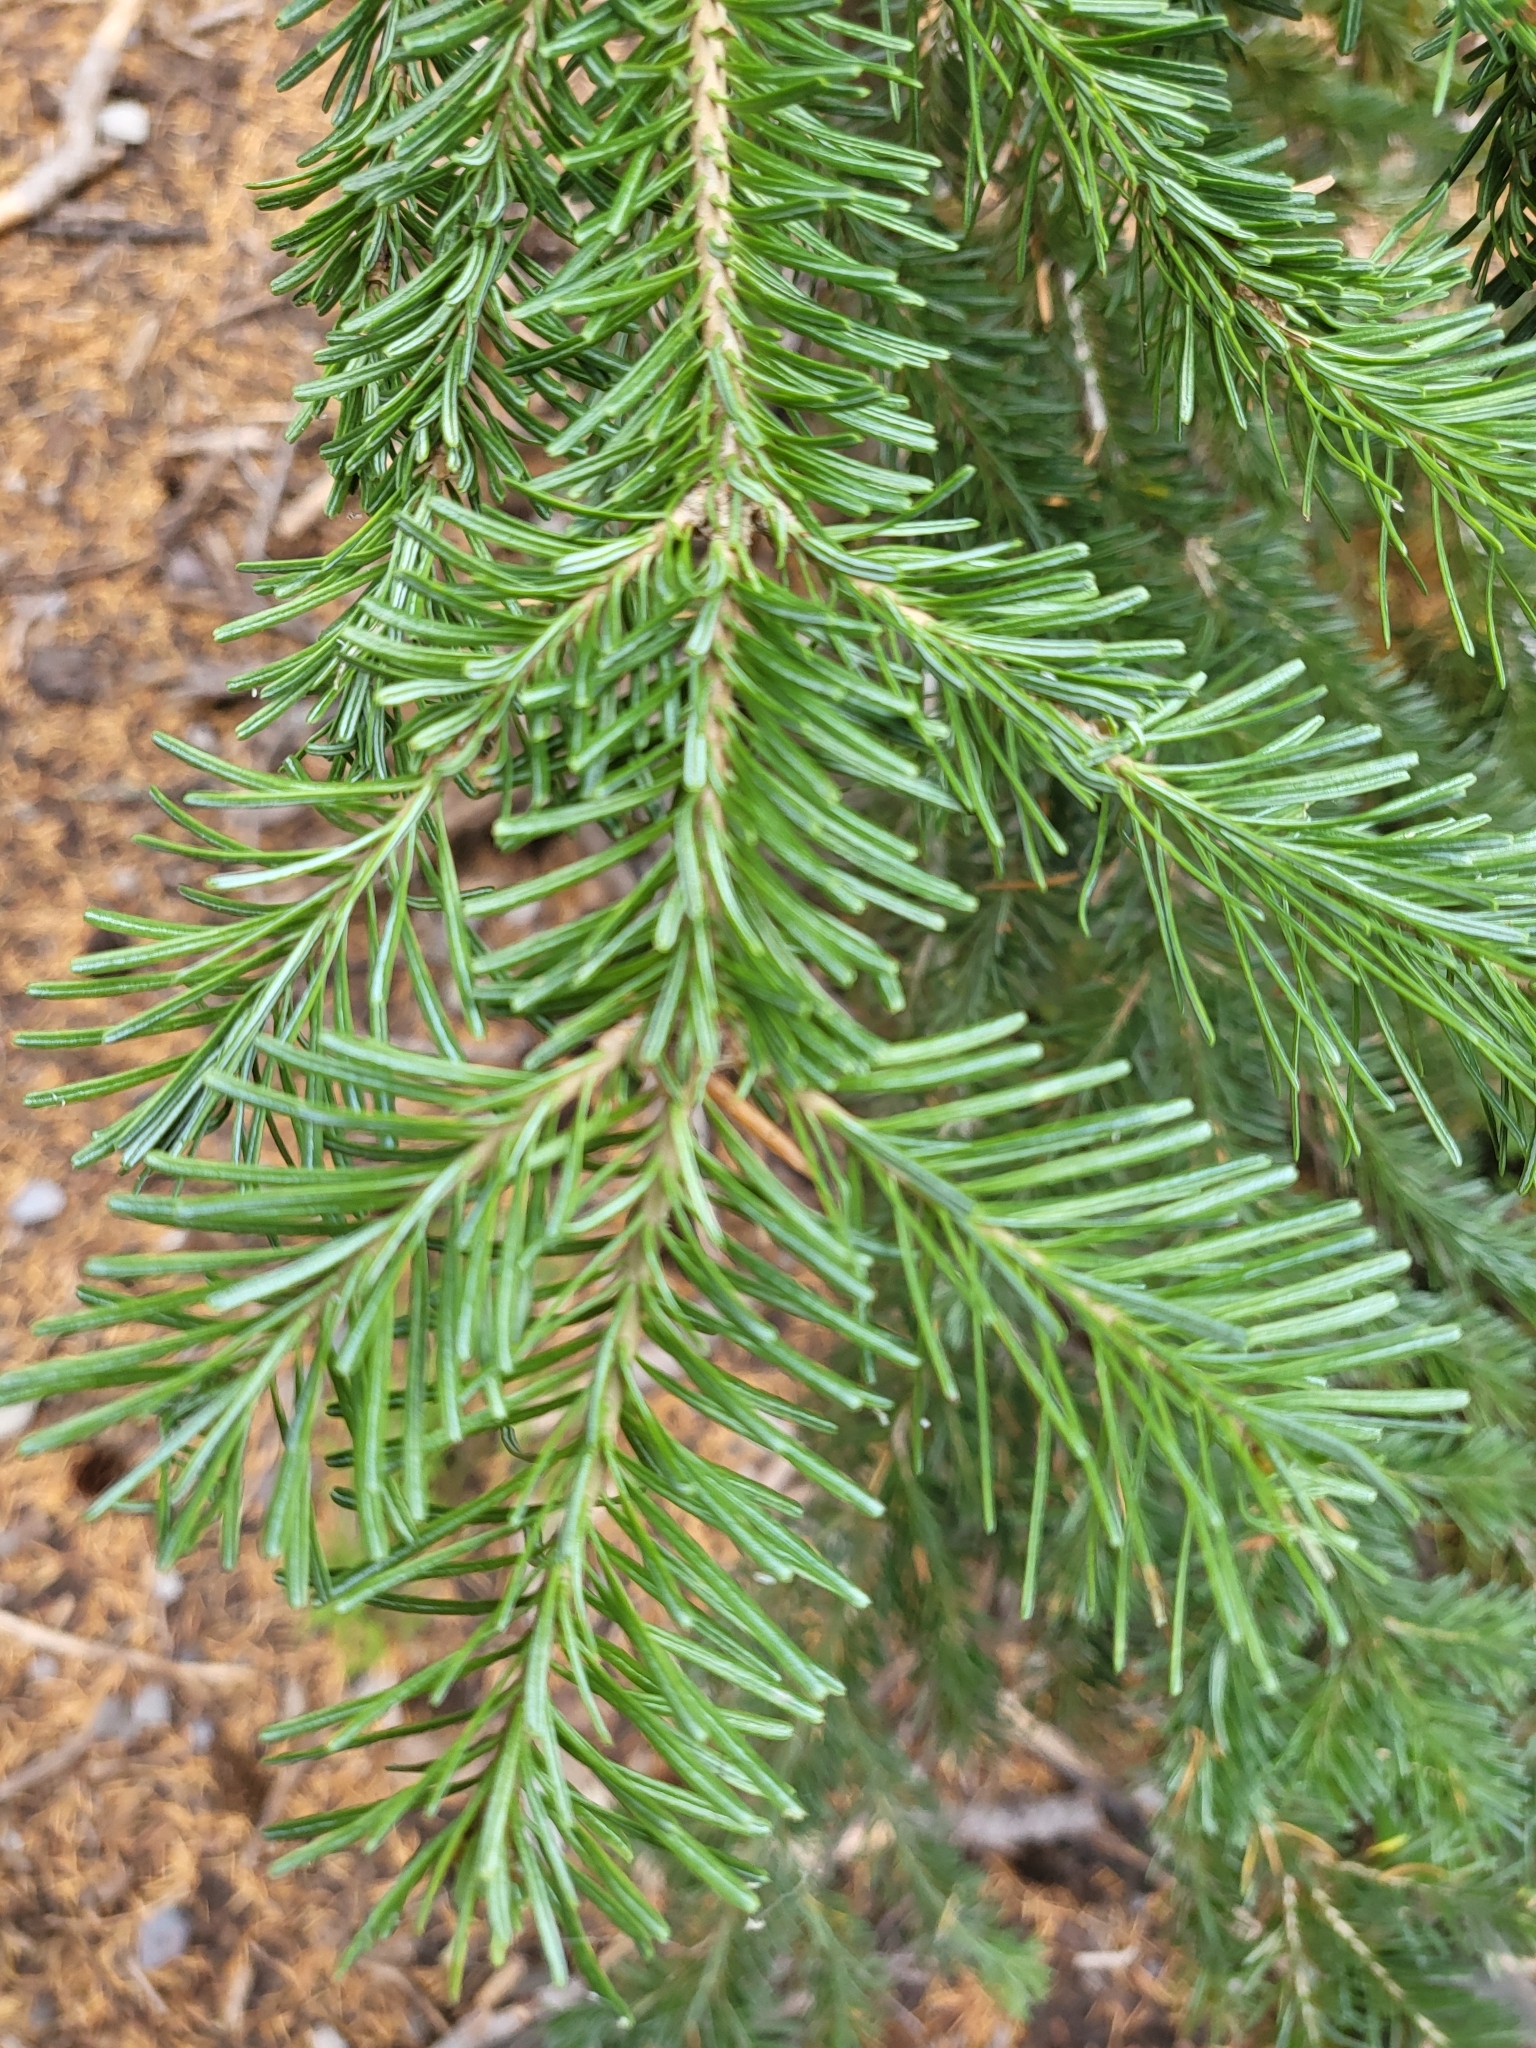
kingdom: Plantae
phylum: Tracheophyta
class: Pinopsida
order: Pinales
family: Pinaceae
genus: Abies
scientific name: Abies lasiocarpa
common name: Subalpine fir
